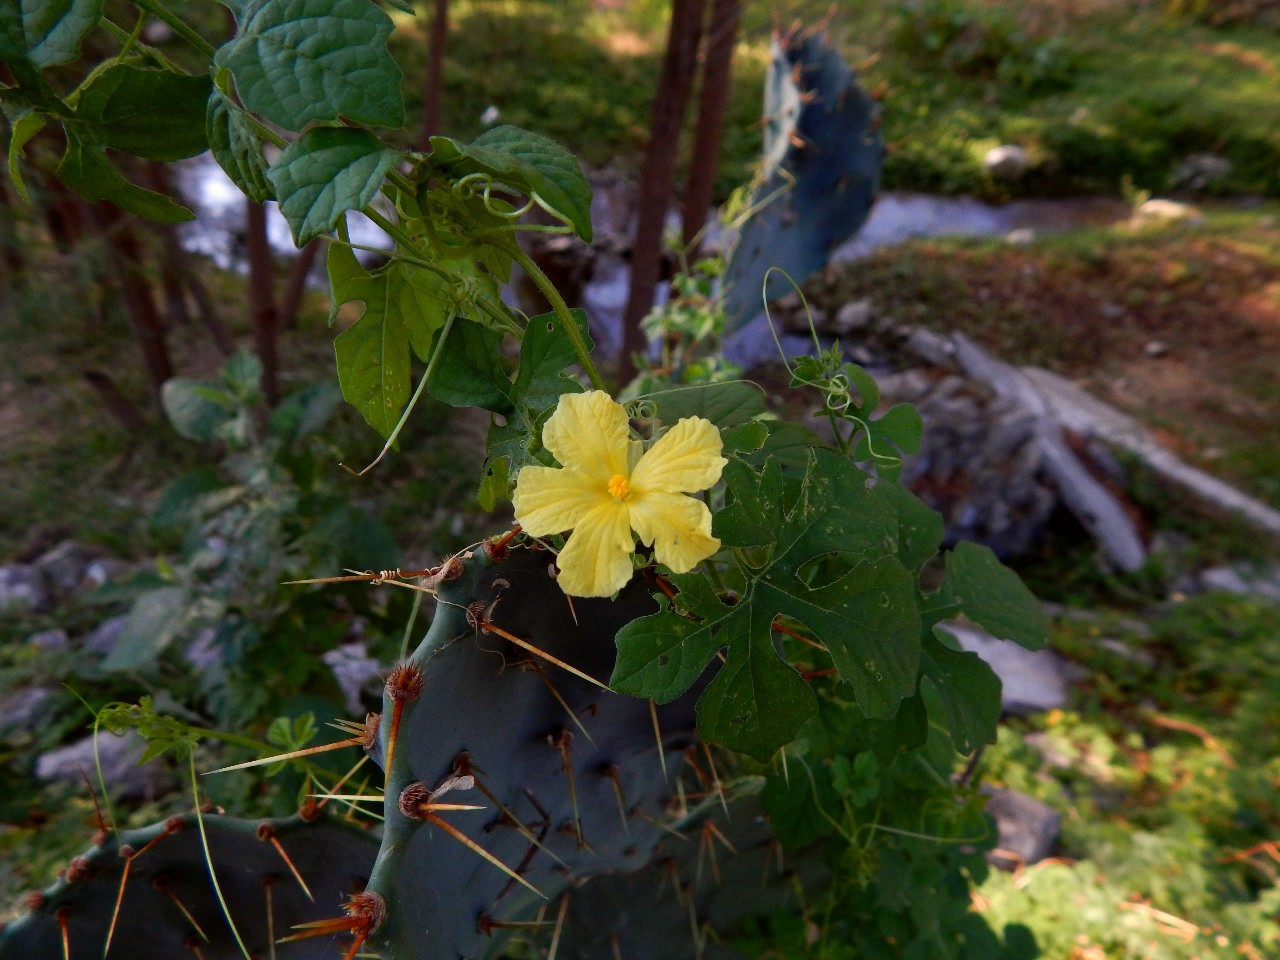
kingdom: Plantae
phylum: Tracheophyta
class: Magnoliopsida
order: Cucurbitales
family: Cucurbitaceae
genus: Momordica
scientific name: Momordica charantia
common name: Balsampear
